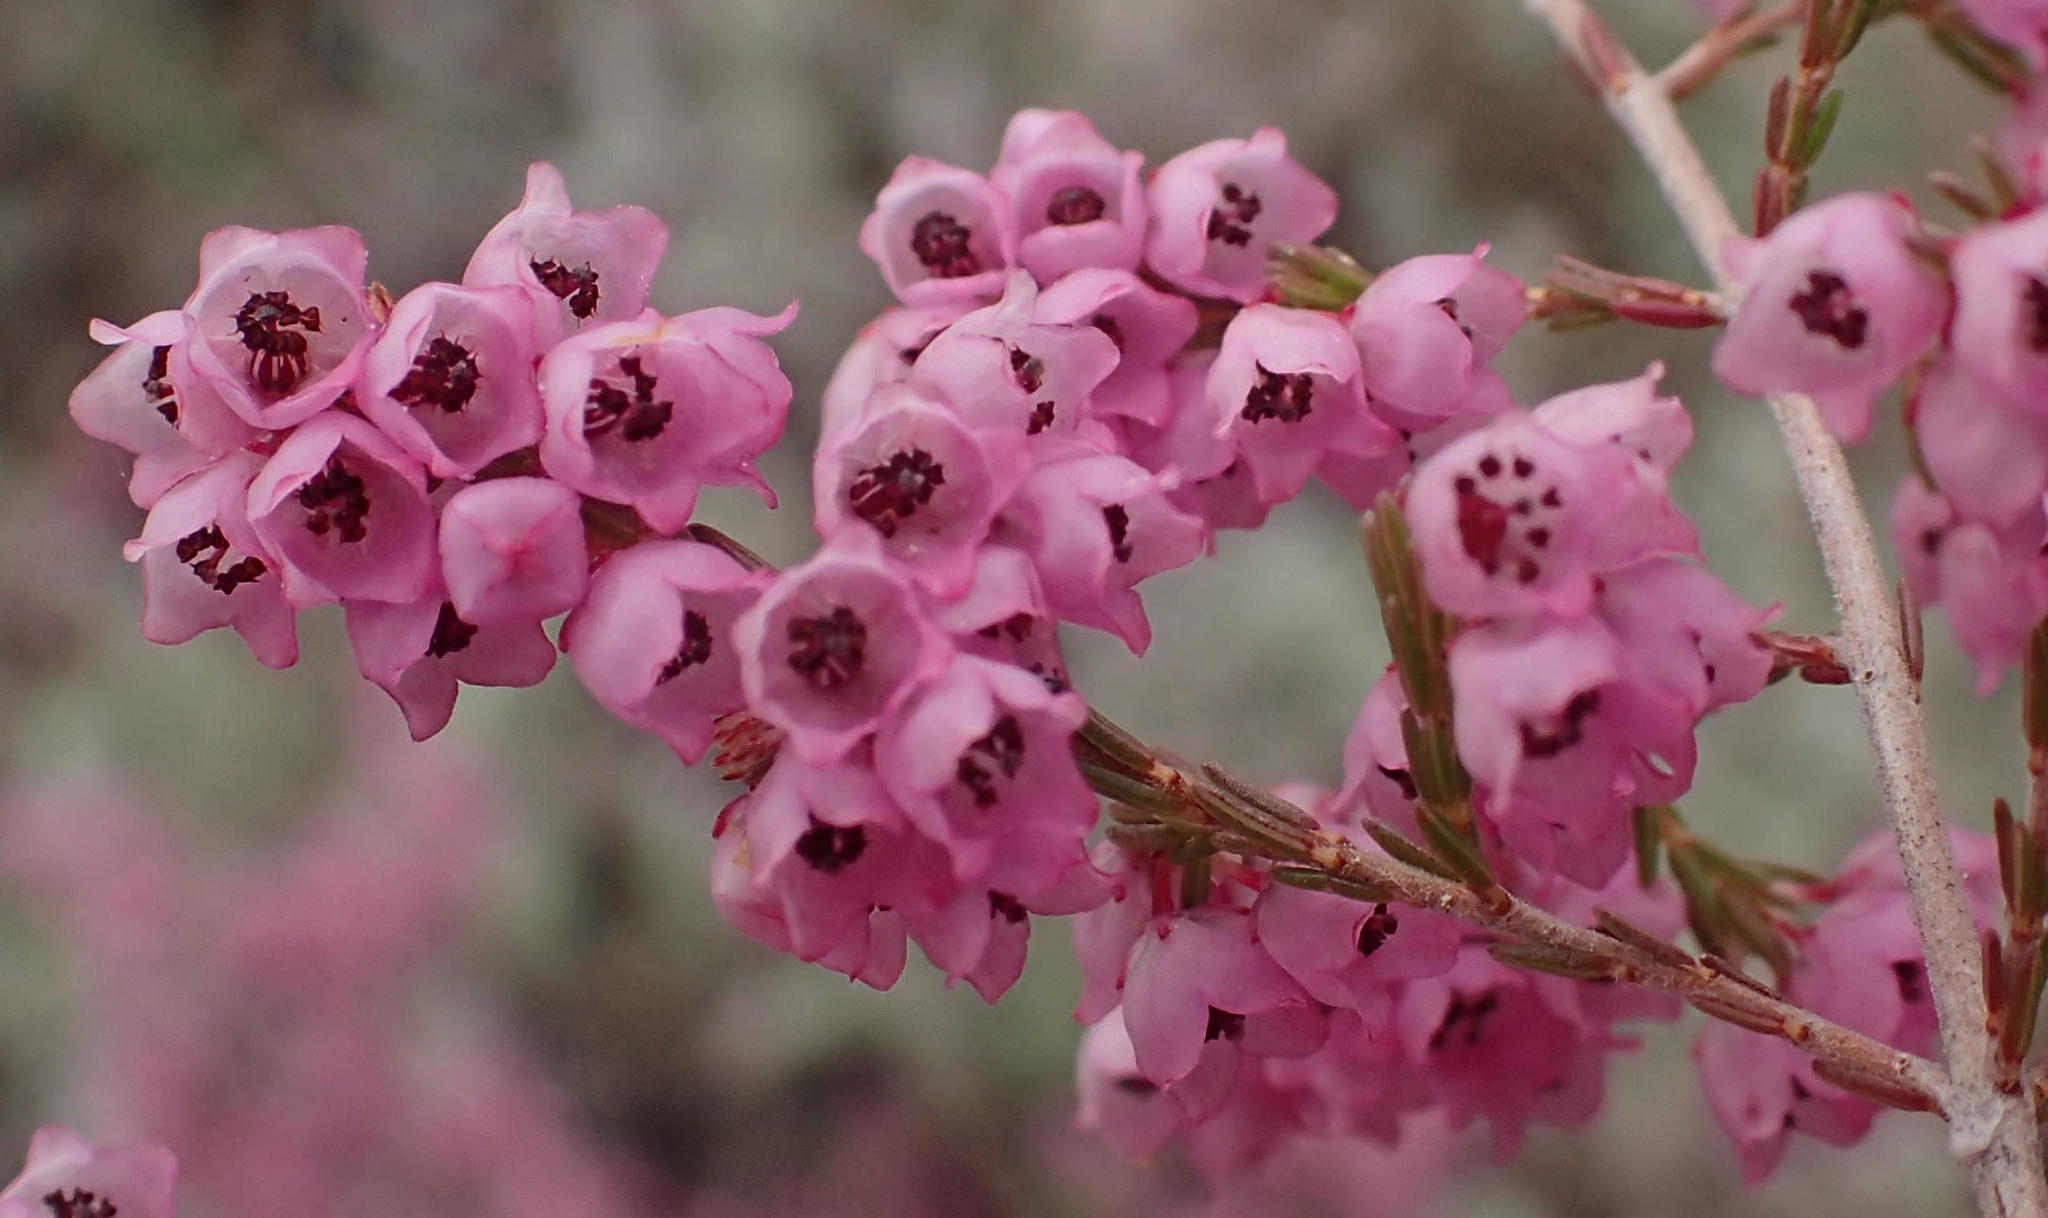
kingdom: Plantae
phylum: Tracheophyta
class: Magnoliopsida
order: Ericales
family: Ericaceae
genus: Erica
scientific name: Erica quadrangularis
